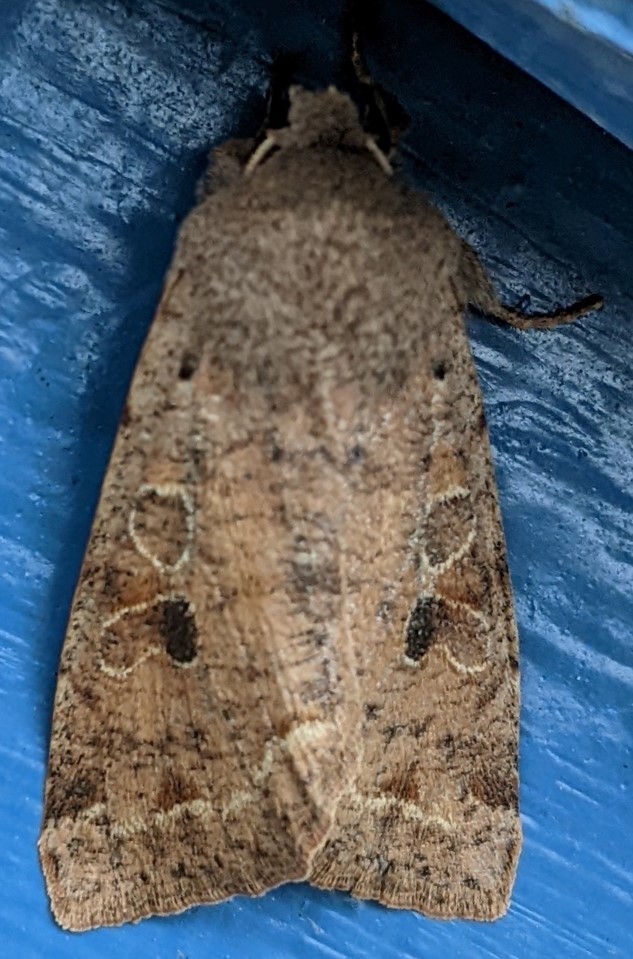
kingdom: Animalia
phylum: Arthropoda
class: Insecta
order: Lepidoptera
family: Noctuidae
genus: Orthosia
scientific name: Orthosia hibisci
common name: Green fruitworm
